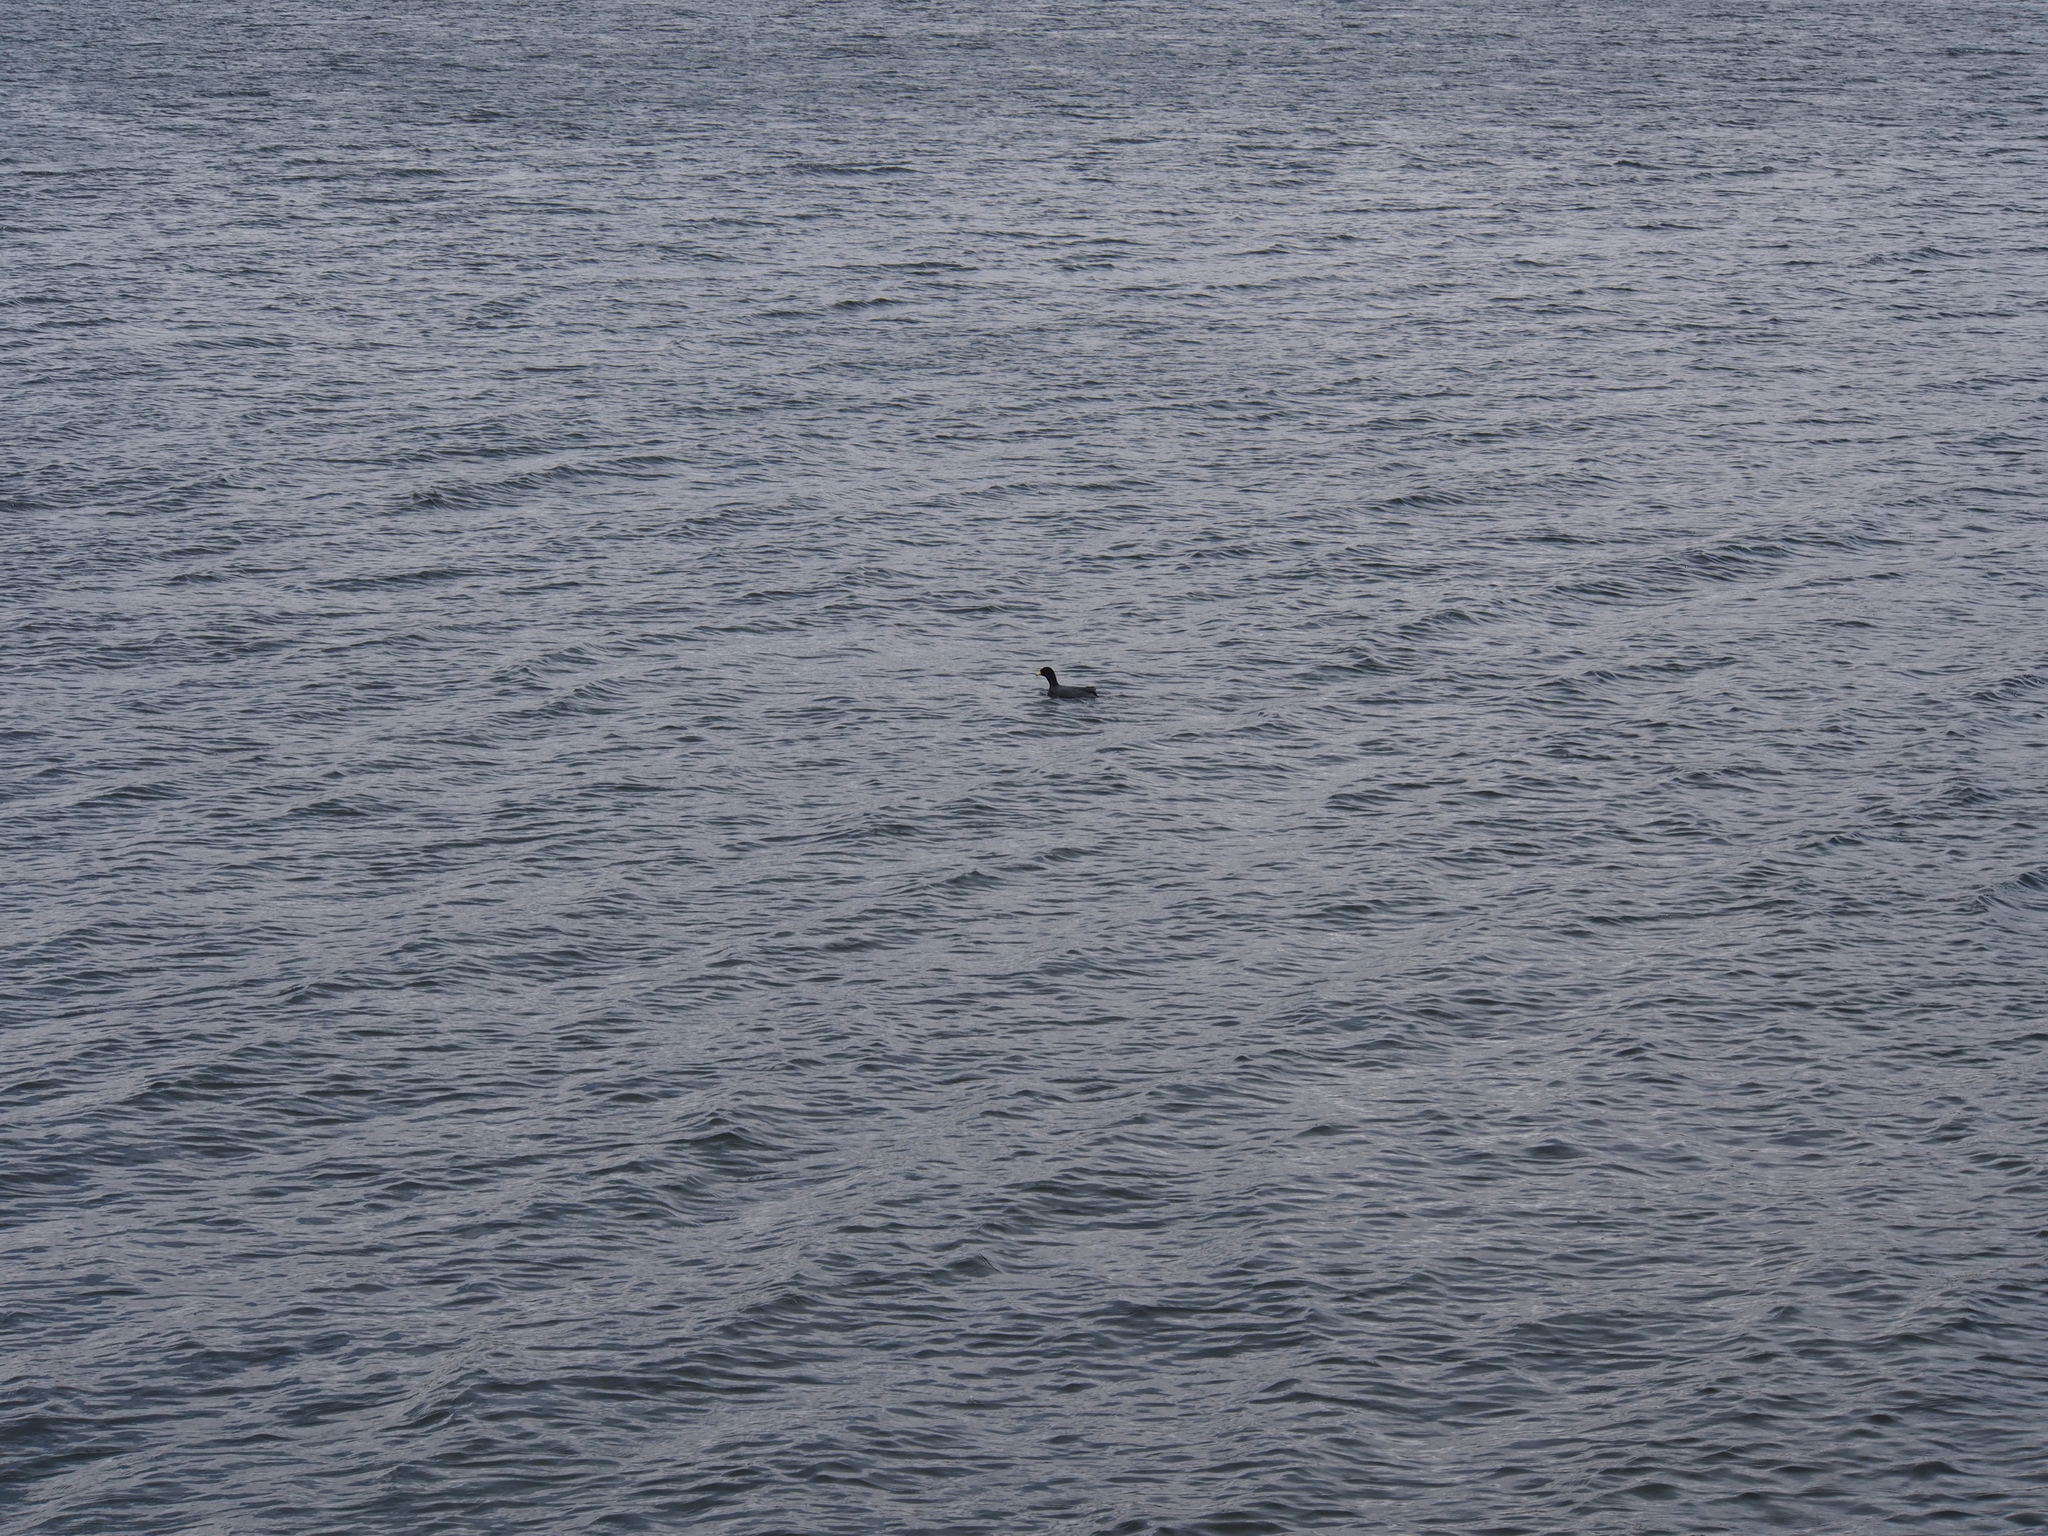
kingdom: Animalia
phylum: Chordata
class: Aves
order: Gruiformes
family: Rallidae
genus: Fulica
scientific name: Fulica ardesiaca
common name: Andean coot
